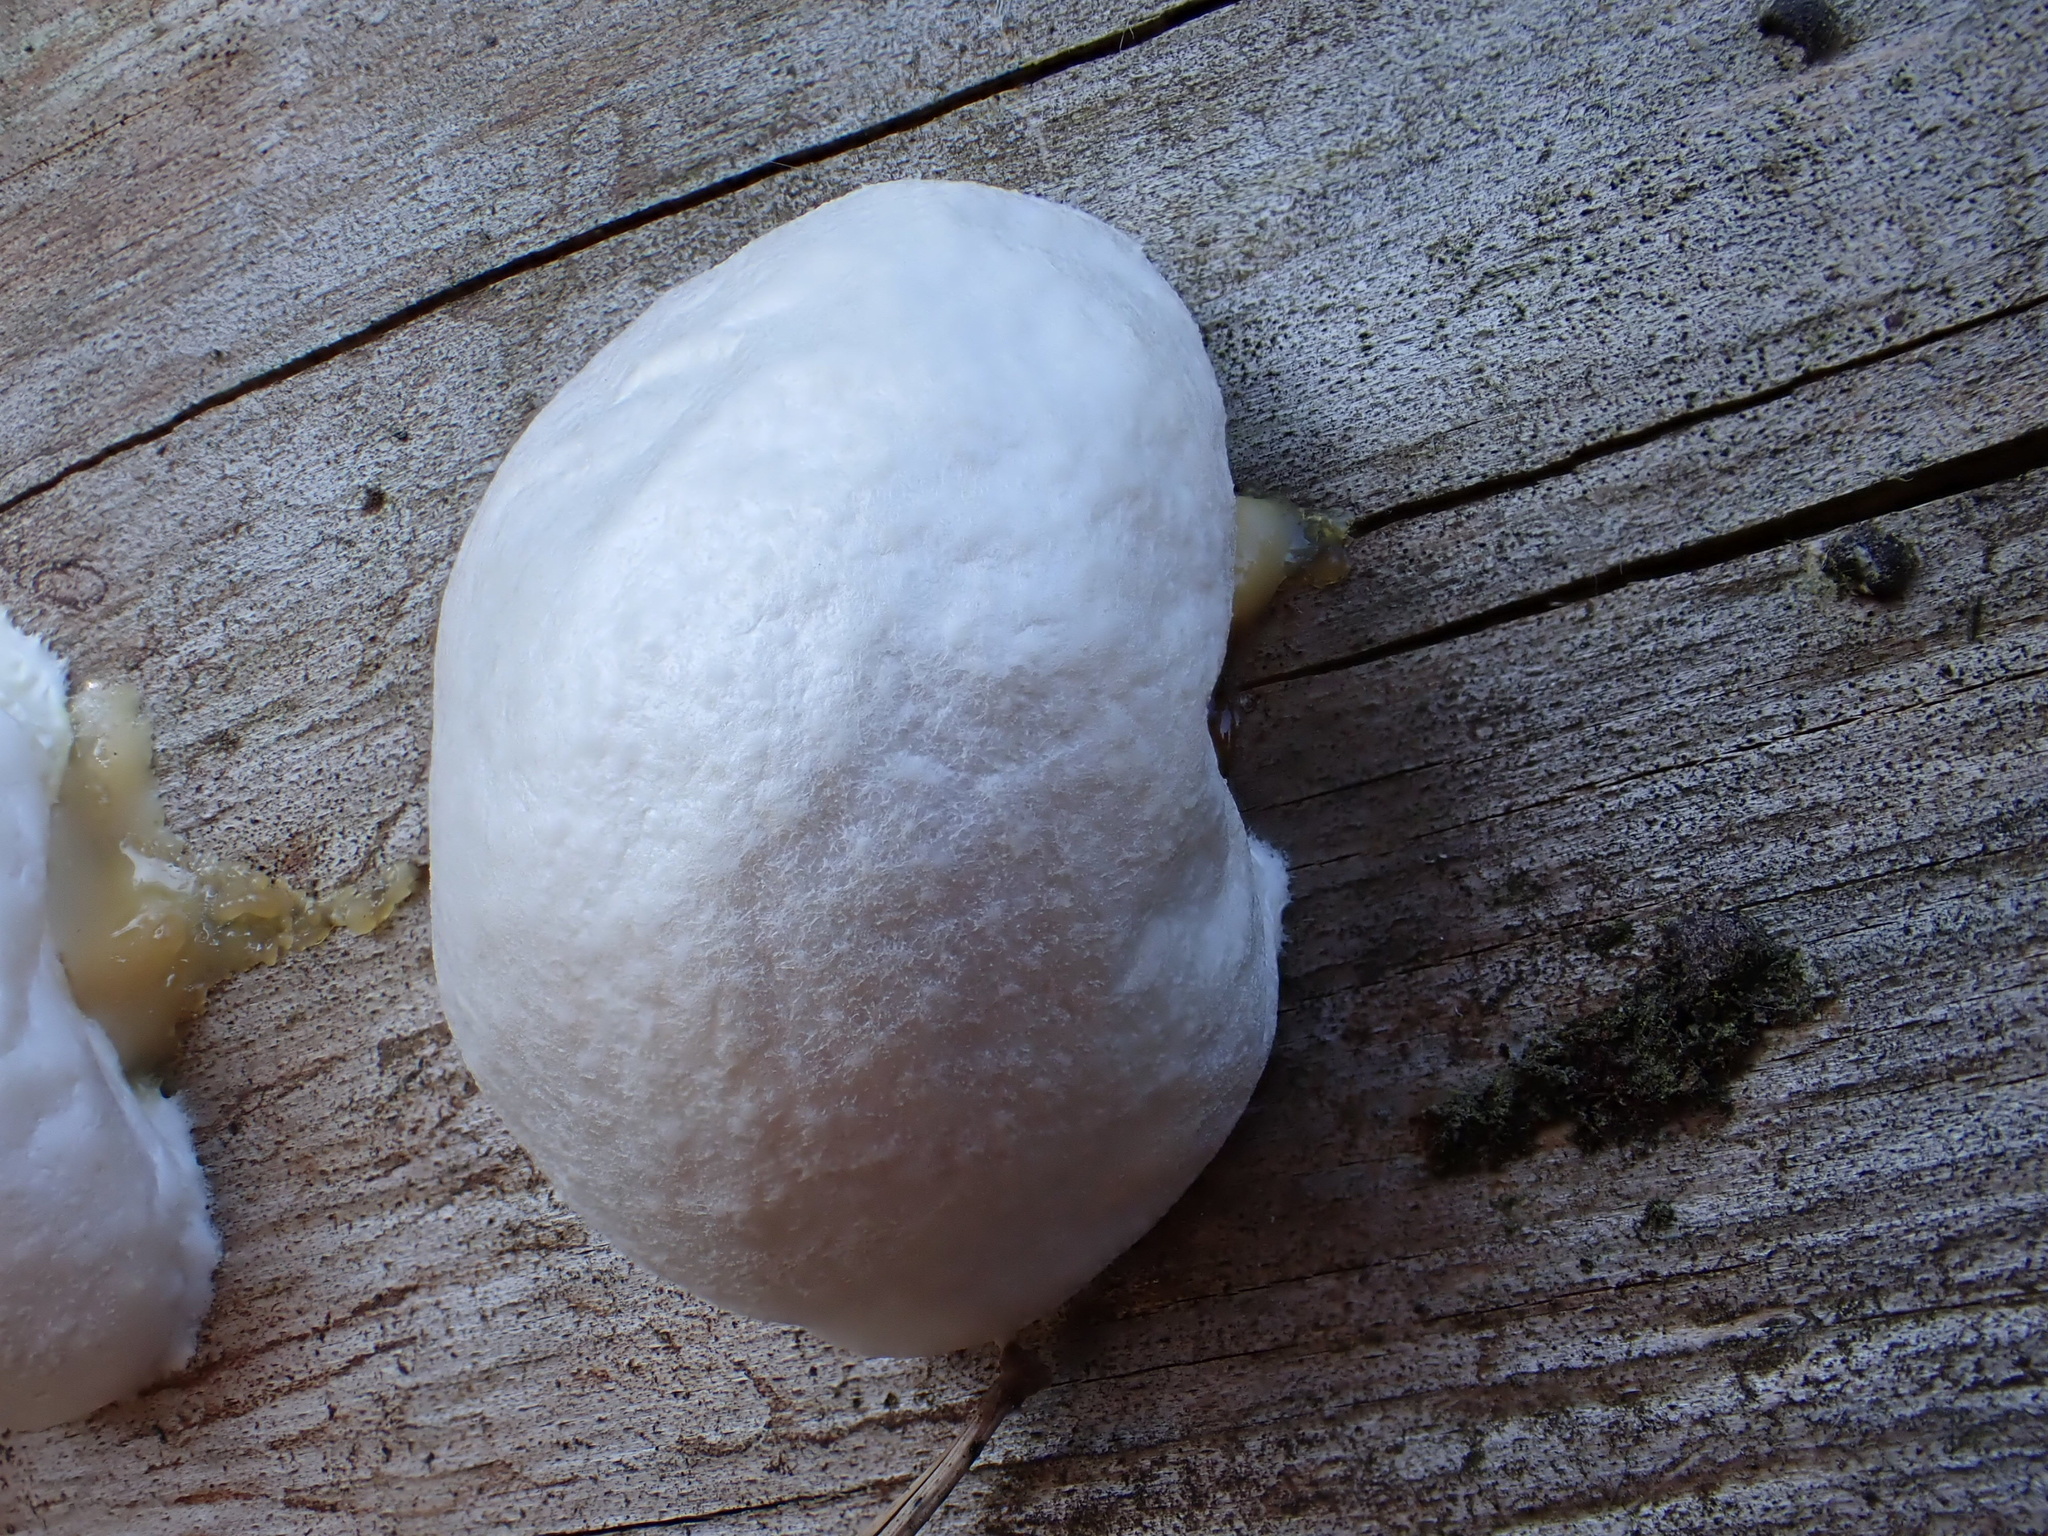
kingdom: Protozoa
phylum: Mycetozoa
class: Myxomycetes
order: Cribrariales
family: Tubiferaceae
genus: Reticularia
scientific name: Reticularia lycoperdon
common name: False puffball
